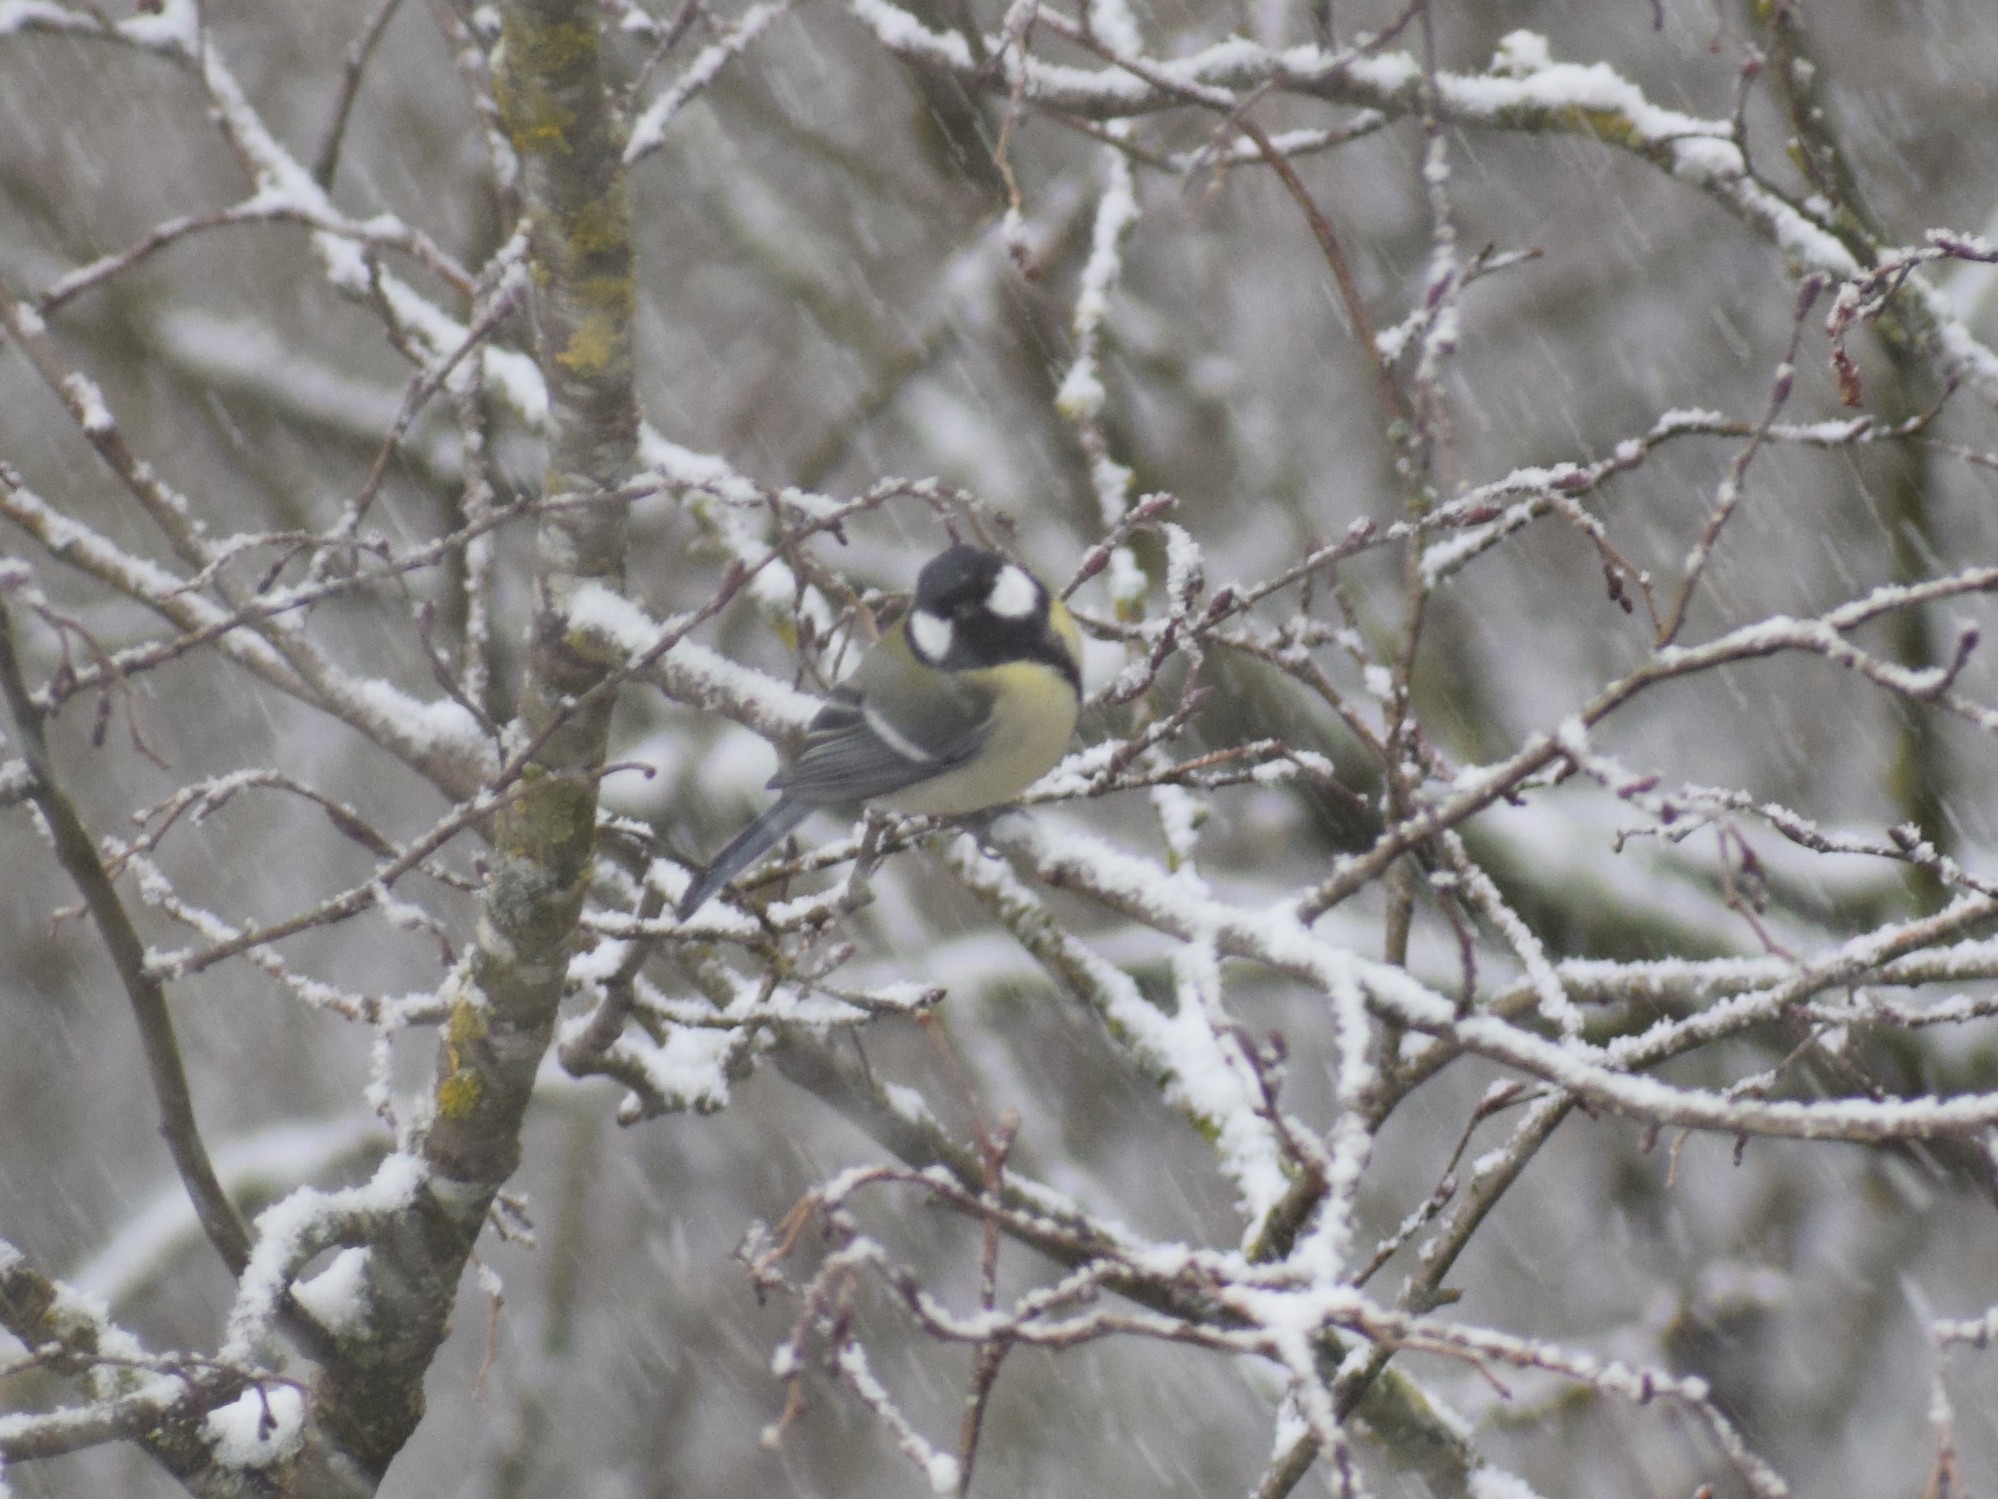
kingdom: Animalia
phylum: Chordata
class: Aves
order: Passeriformes
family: Paridae
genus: Parus
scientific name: Parus major
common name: Great tit
